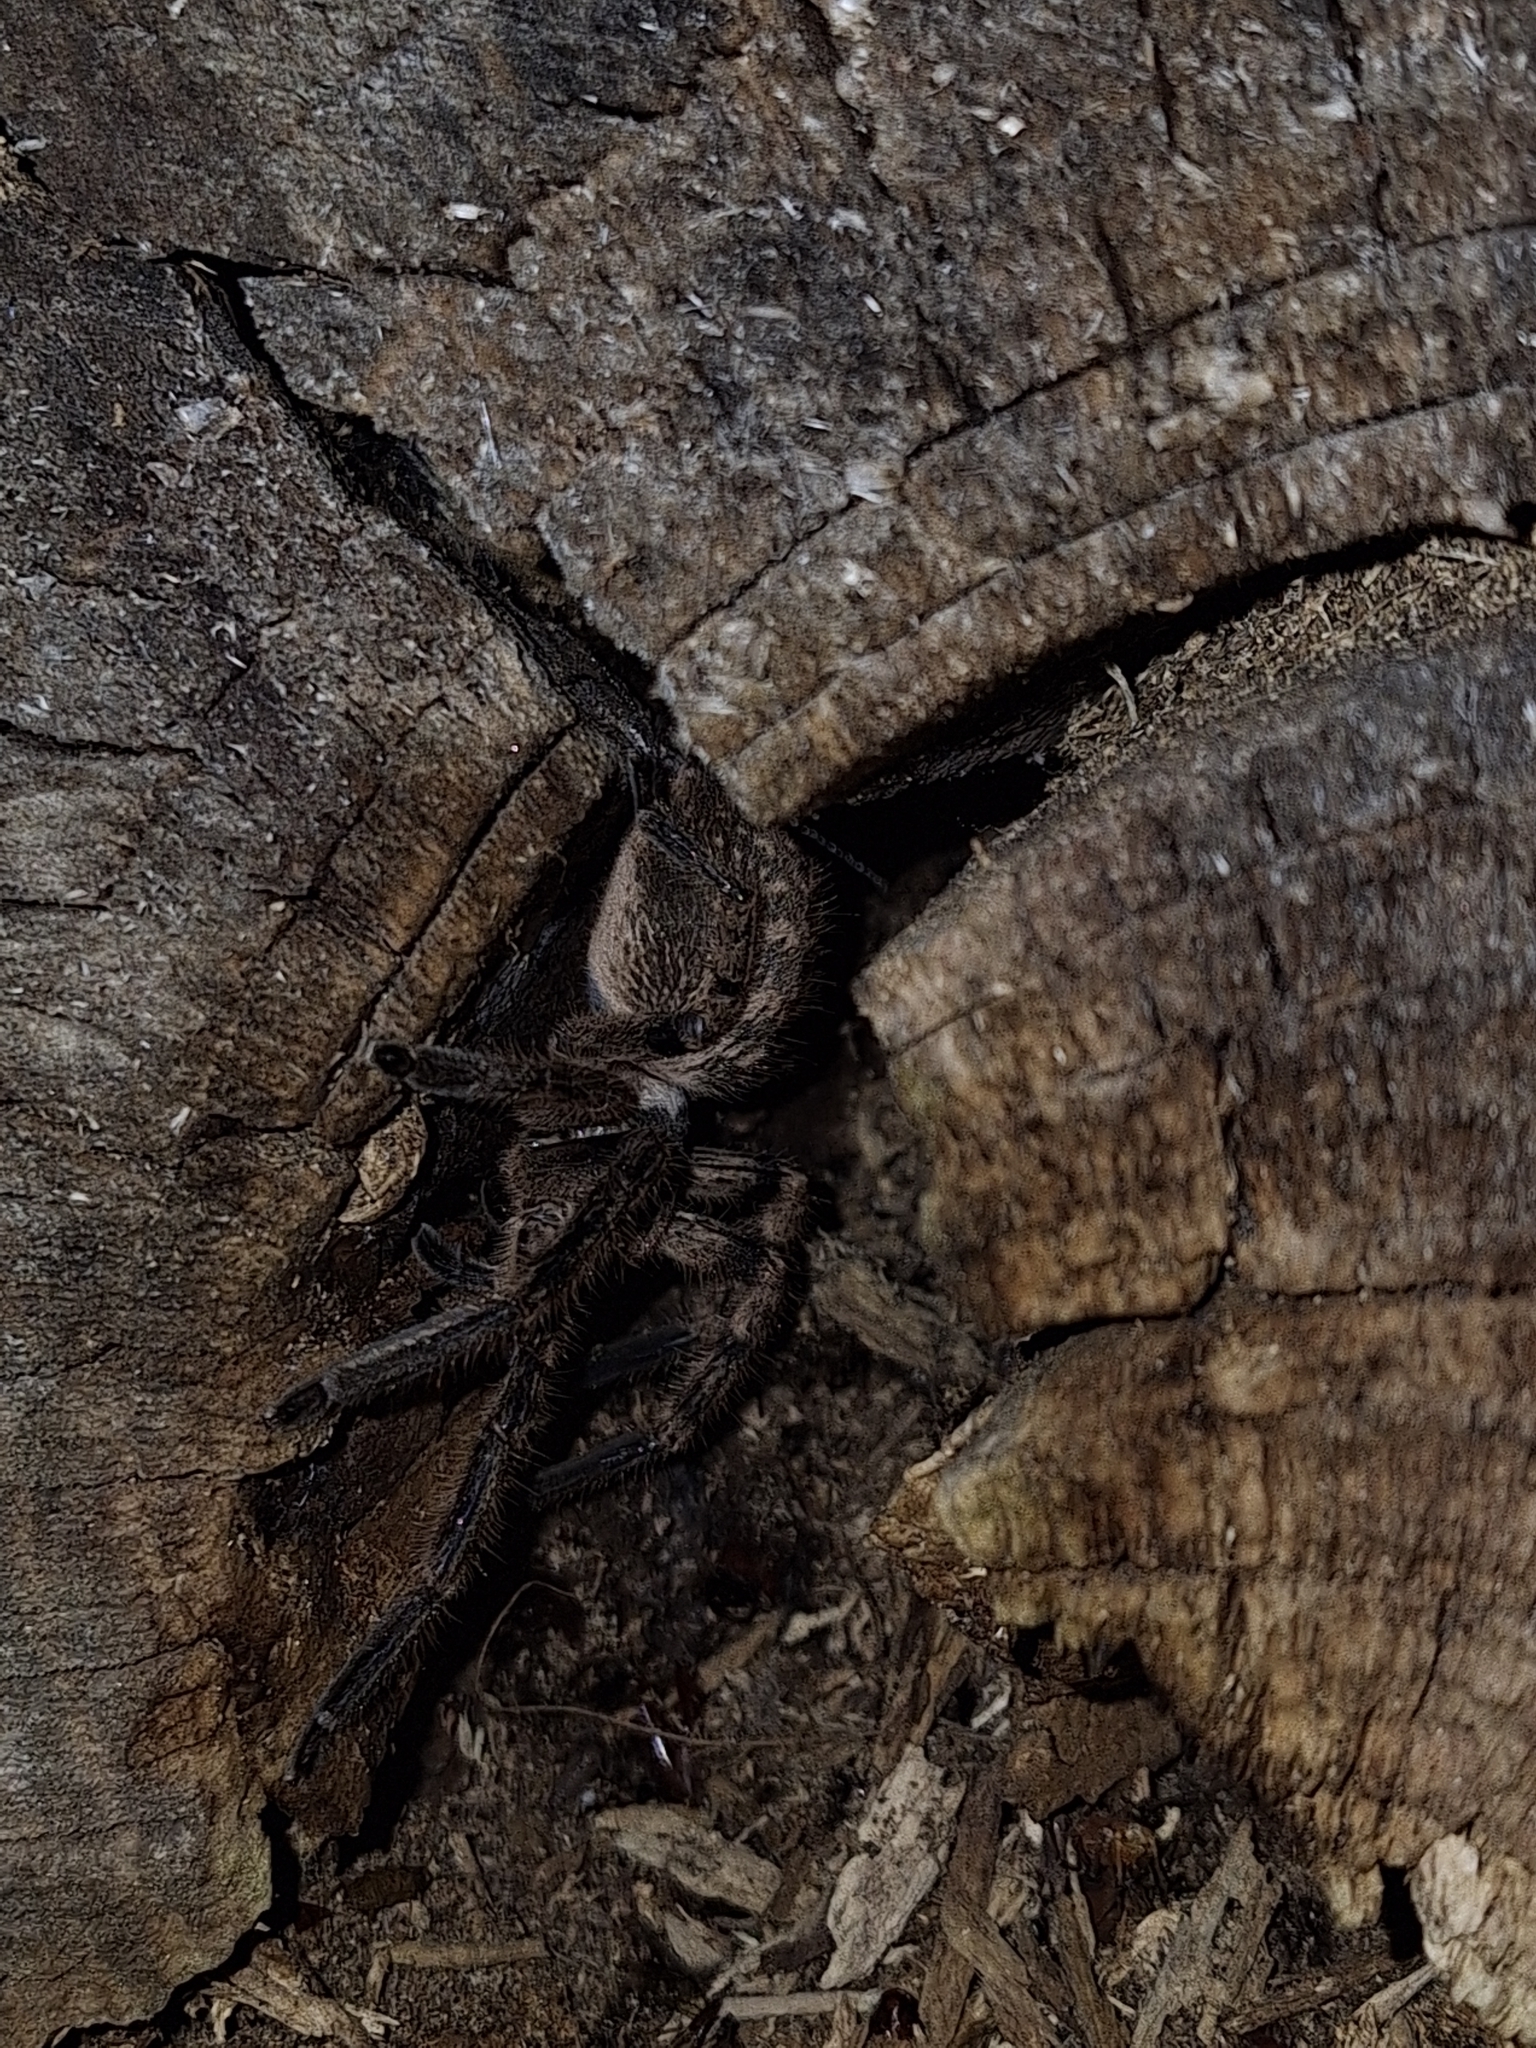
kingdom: Animalia
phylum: Arthropoda
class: Arachnida
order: Araneae
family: Sparassidae
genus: Polybetes
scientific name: Polybetes pythagoricus
